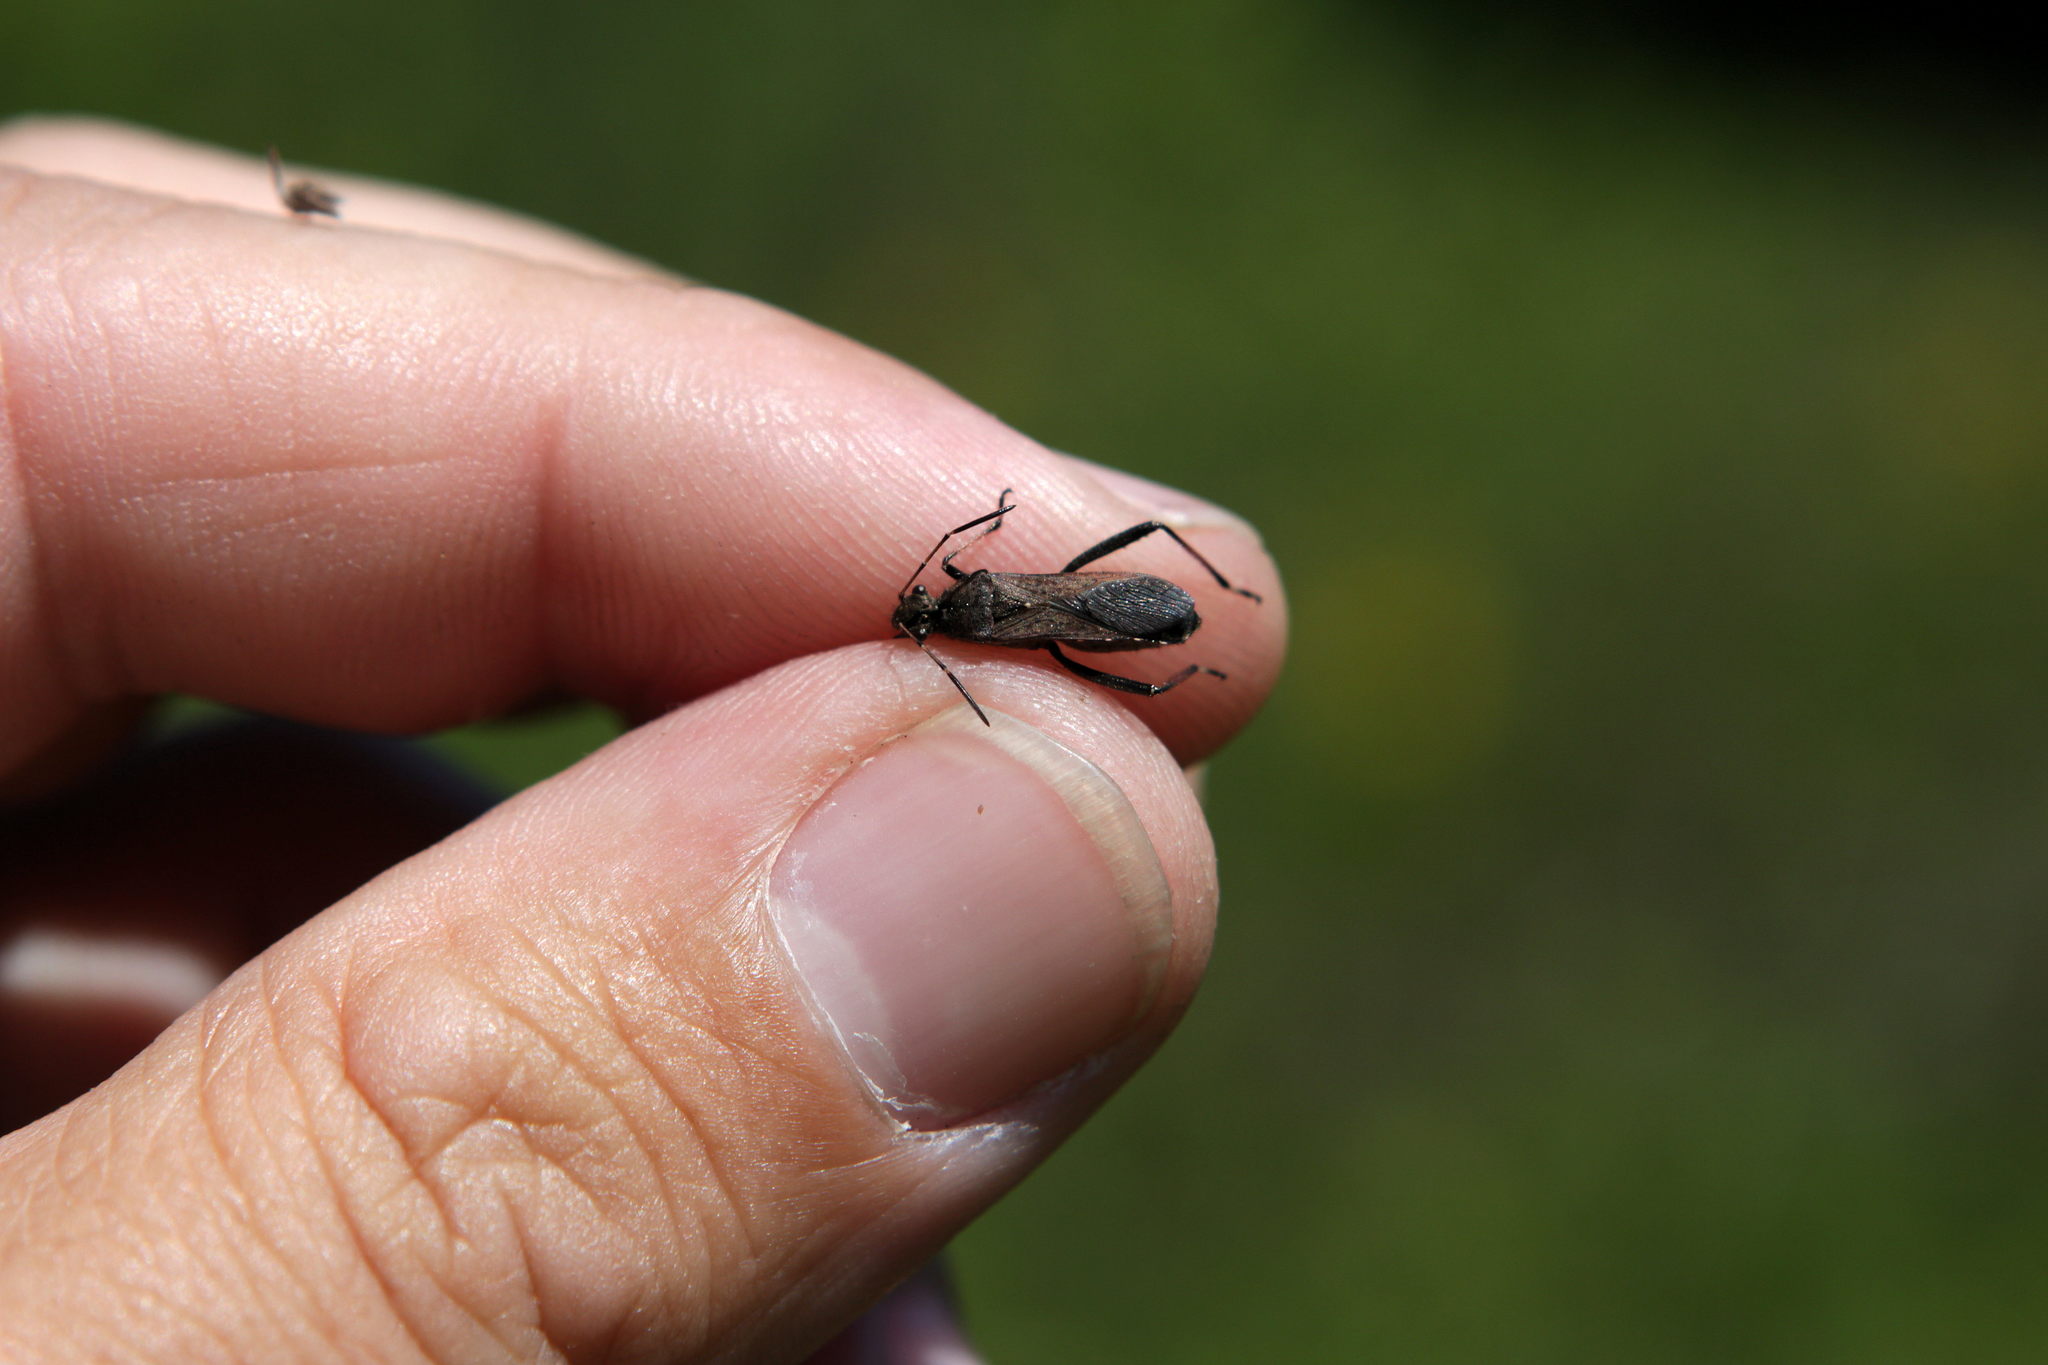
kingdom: Animalia
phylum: Arthropoda
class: Insecta
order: Hemiptera
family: Alydidae
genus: Alydus
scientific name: Alydus calcaratus
